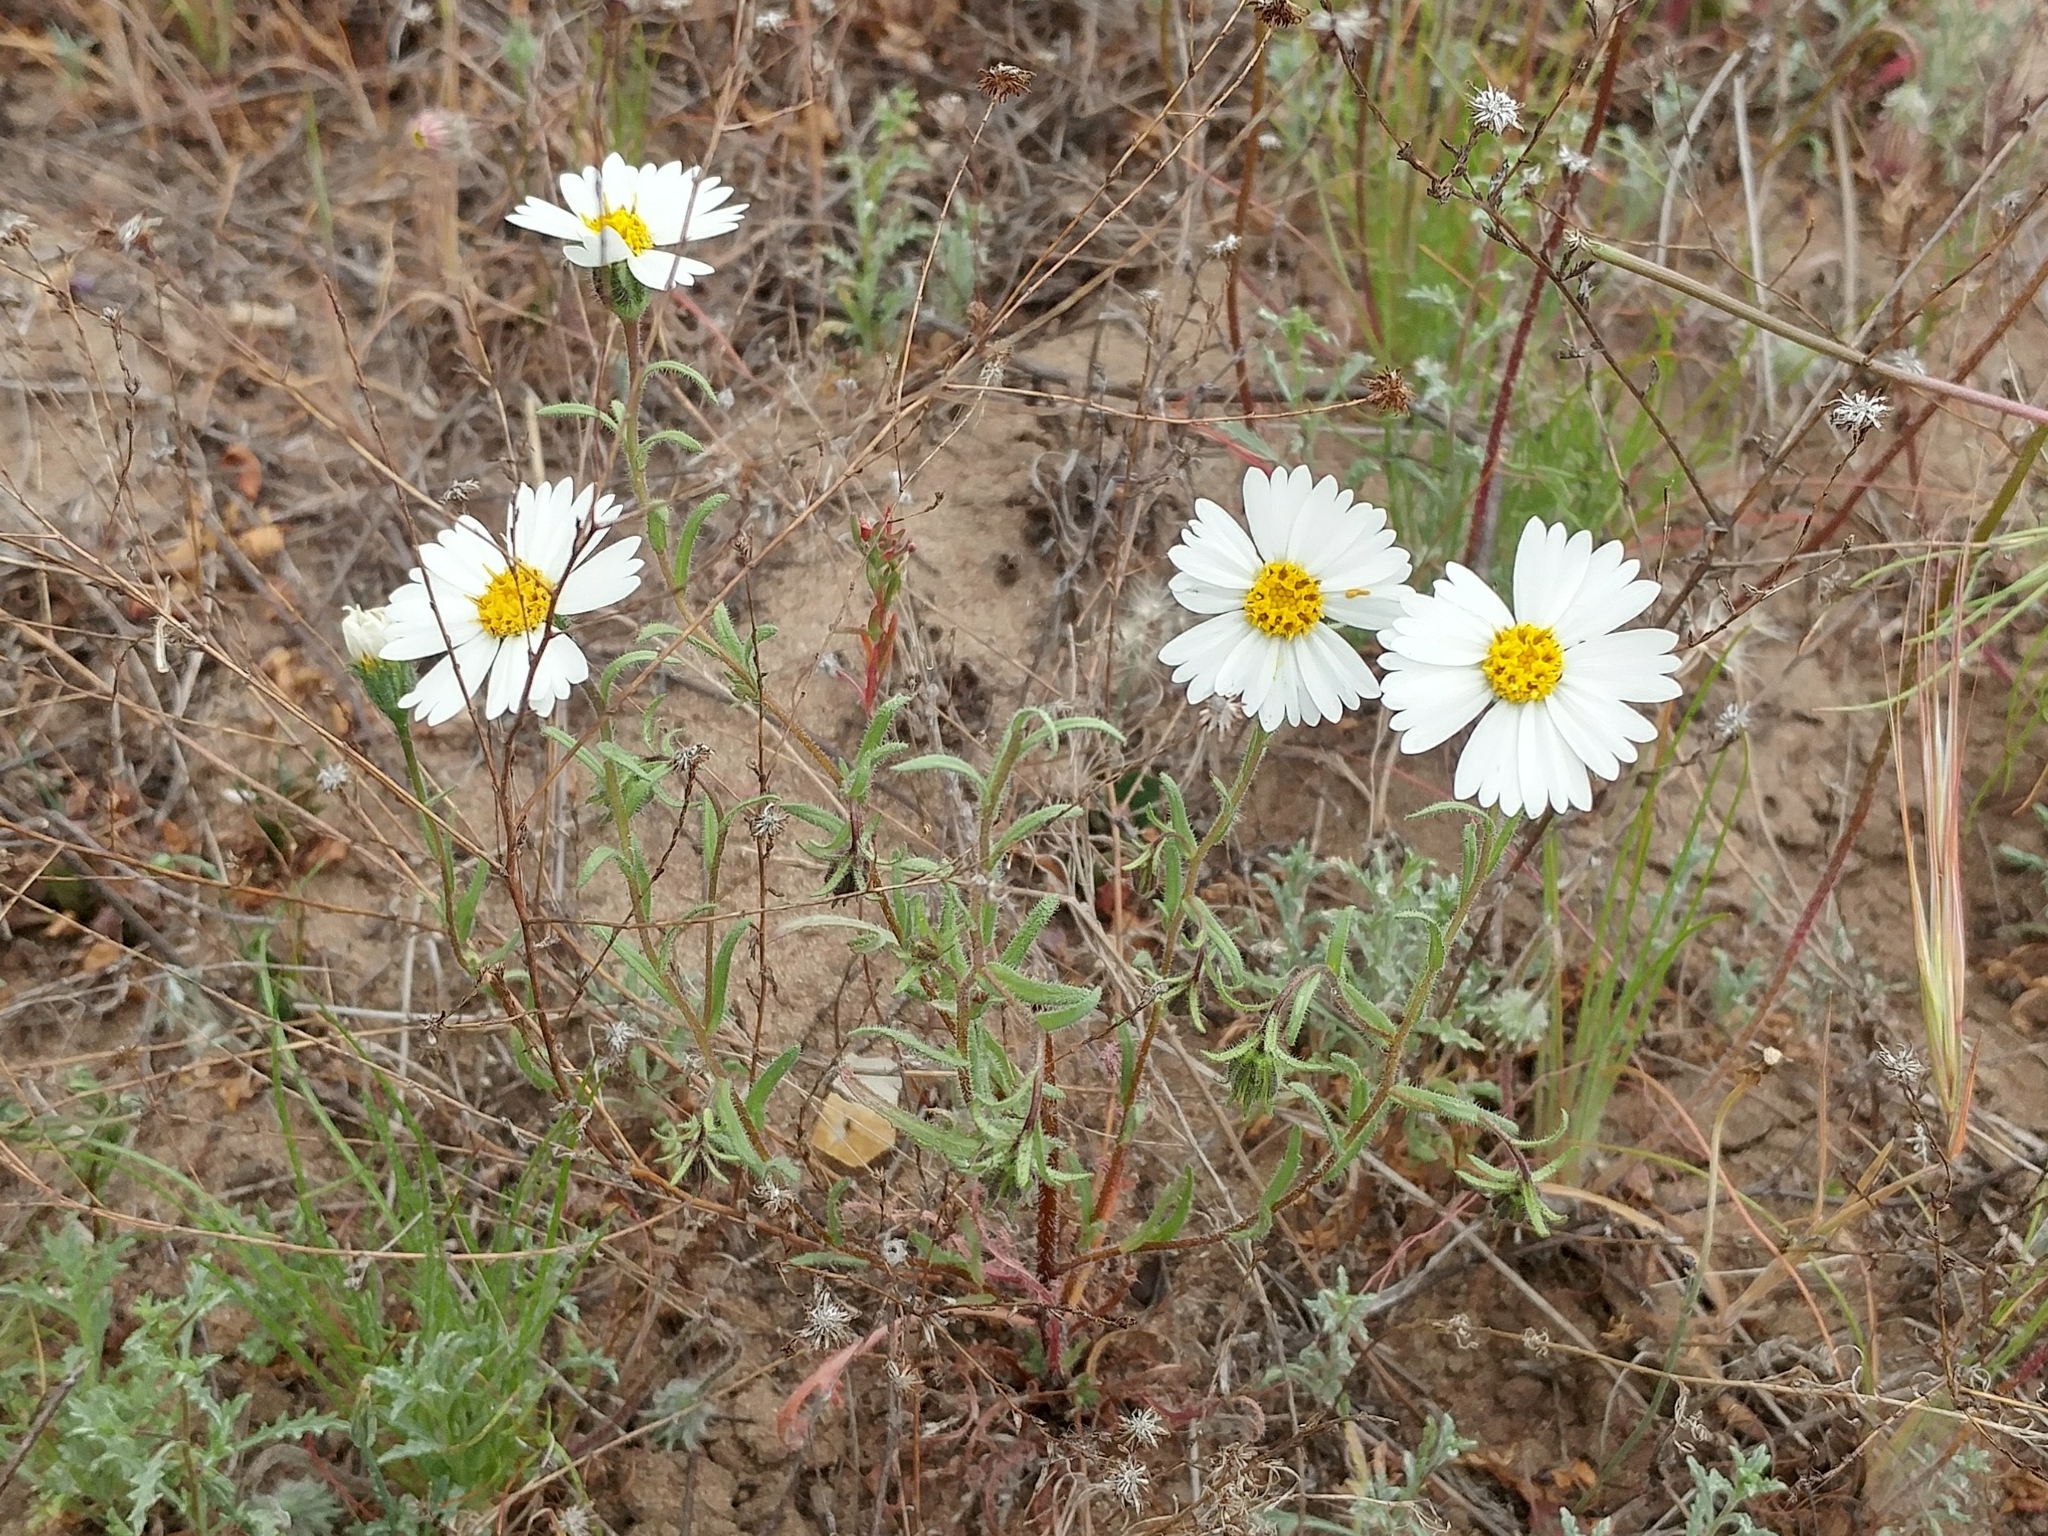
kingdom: Plantae
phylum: Tracheophyta
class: Magnoliopsida
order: Asterales
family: Asteraceae
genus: Layia
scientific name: Layia erubescens
